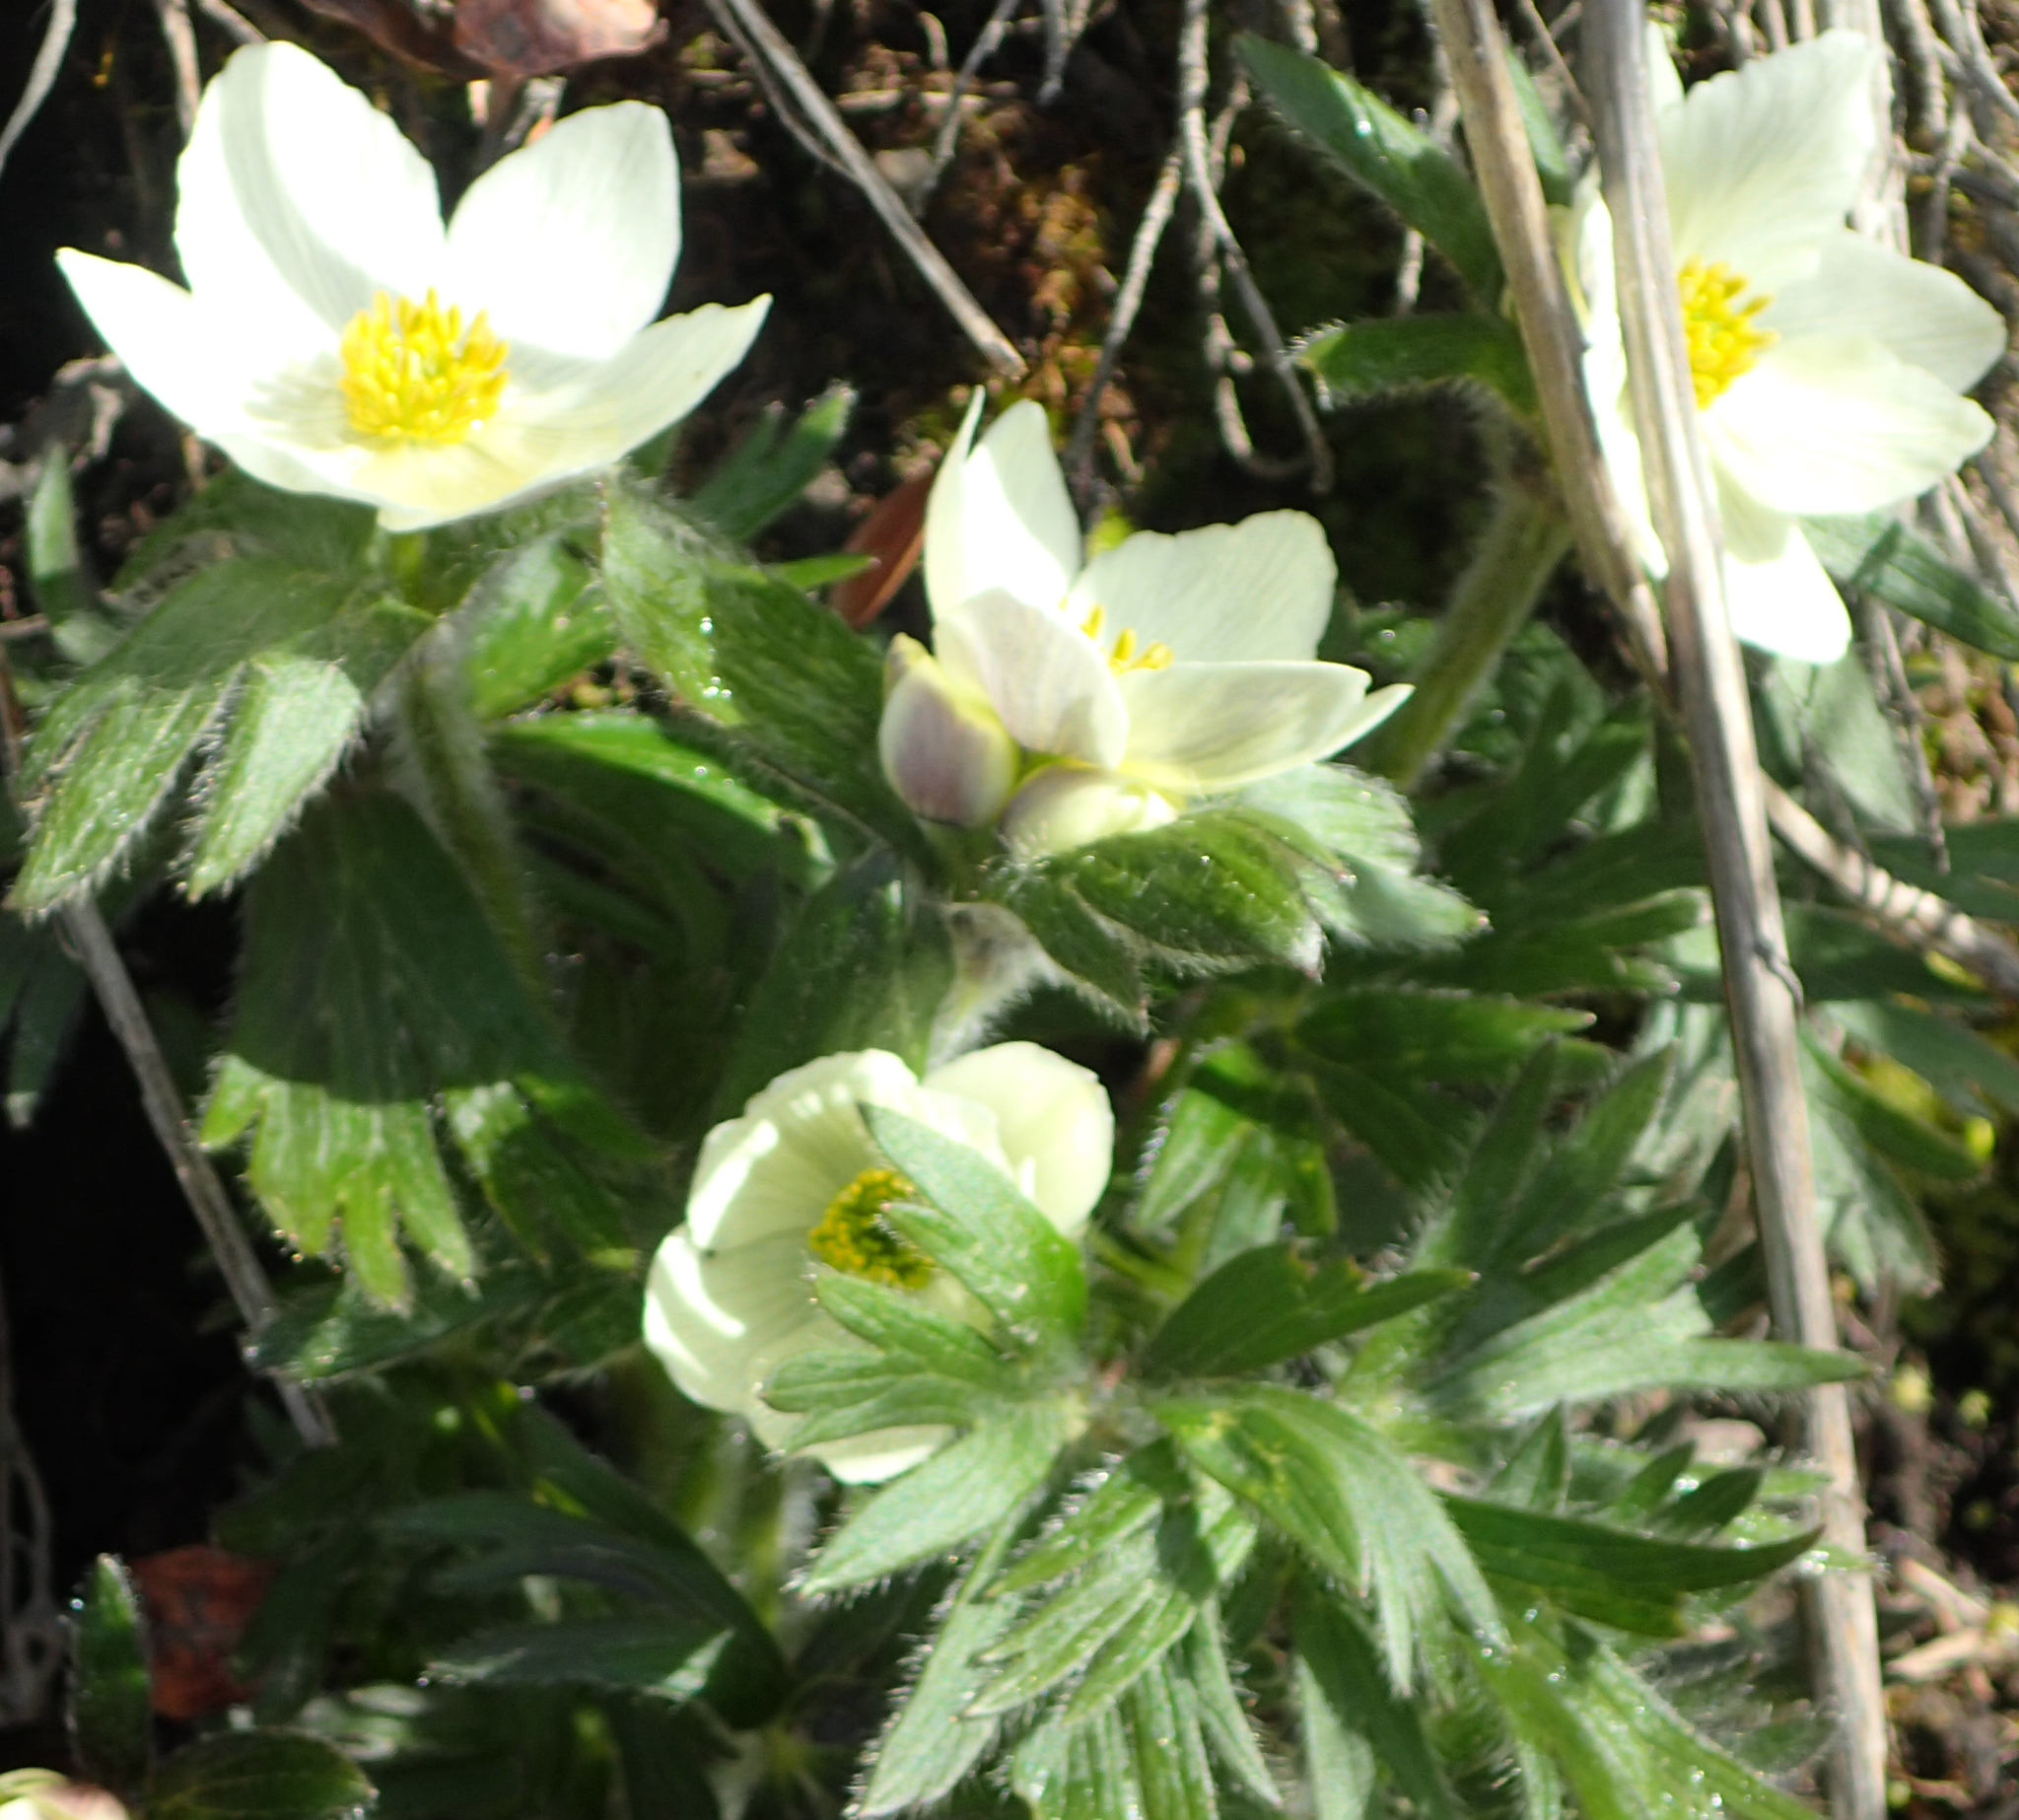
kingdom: Plantae
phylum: Tracheophyta
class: Magnoliopsida
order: Ranunculales
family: Ranunculaceae
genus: Anemonastrum
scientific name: Anemonastrum narcissiflorum
